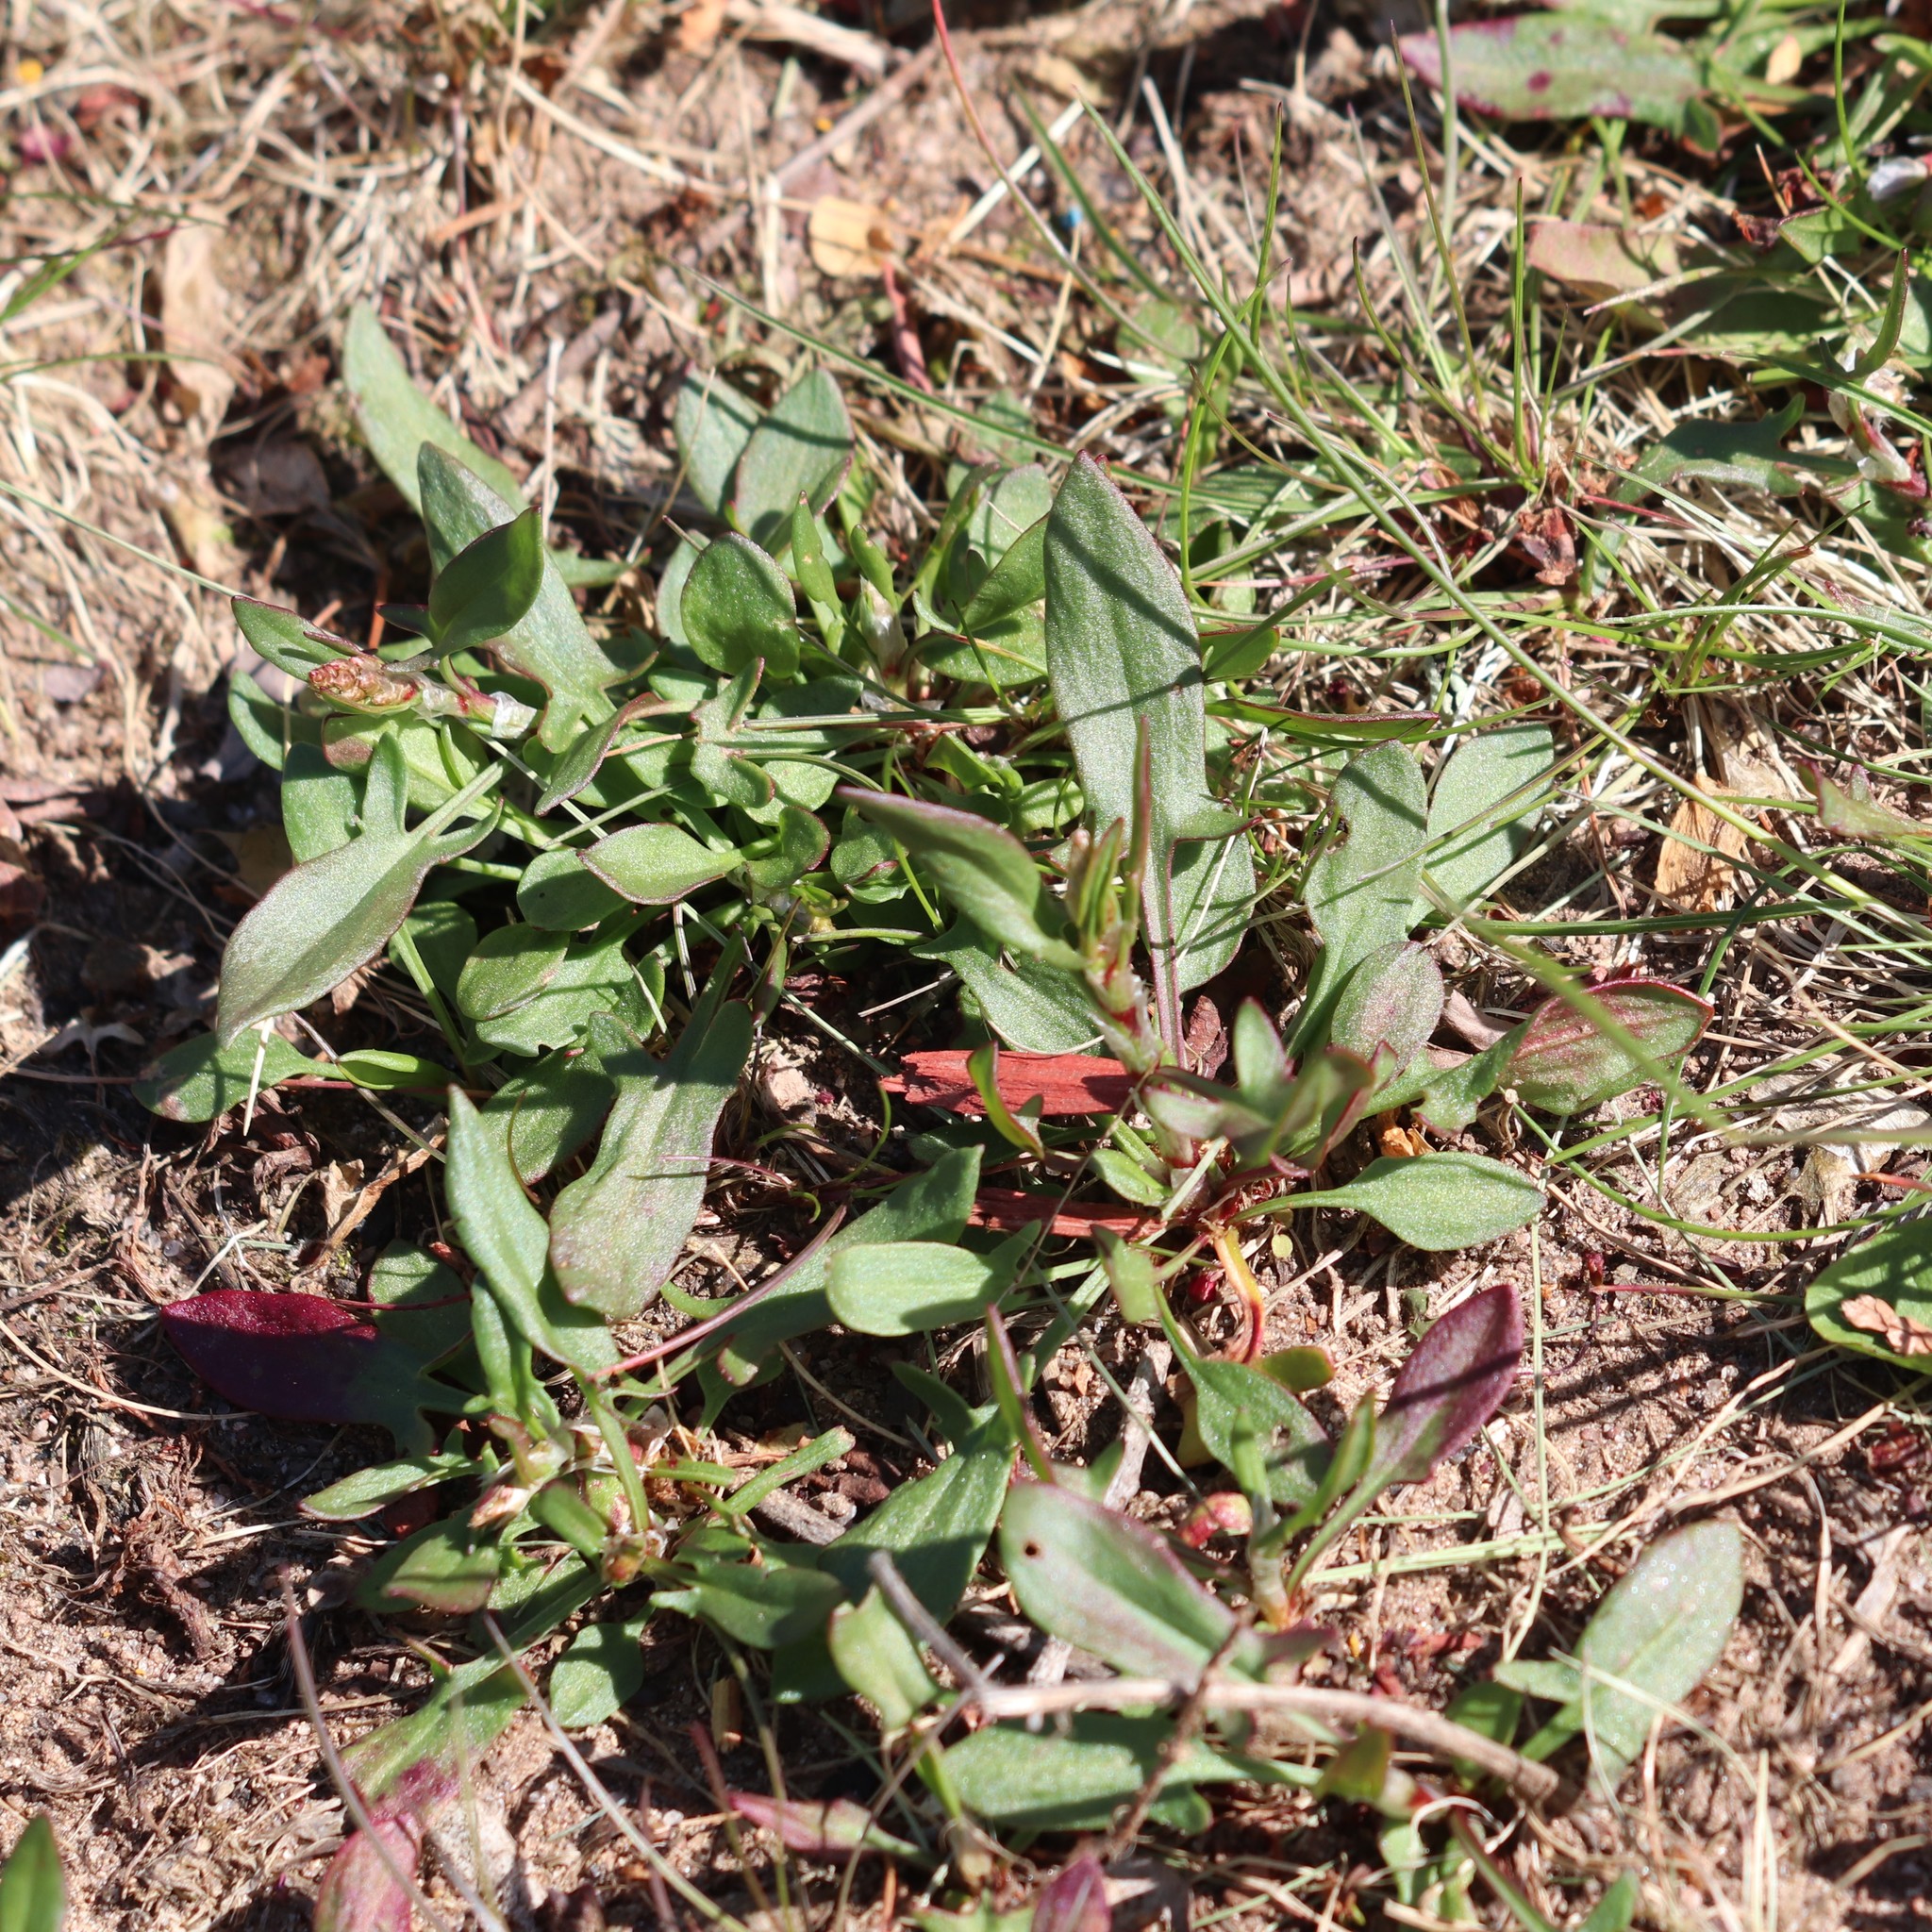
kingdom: Plantae
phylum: Tracheophyta
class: Magnoliopsida
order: Caryophyllales
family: Polygonaceae
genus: Rumex
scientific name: Rumex acetosella
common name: Common sheep sorrel
